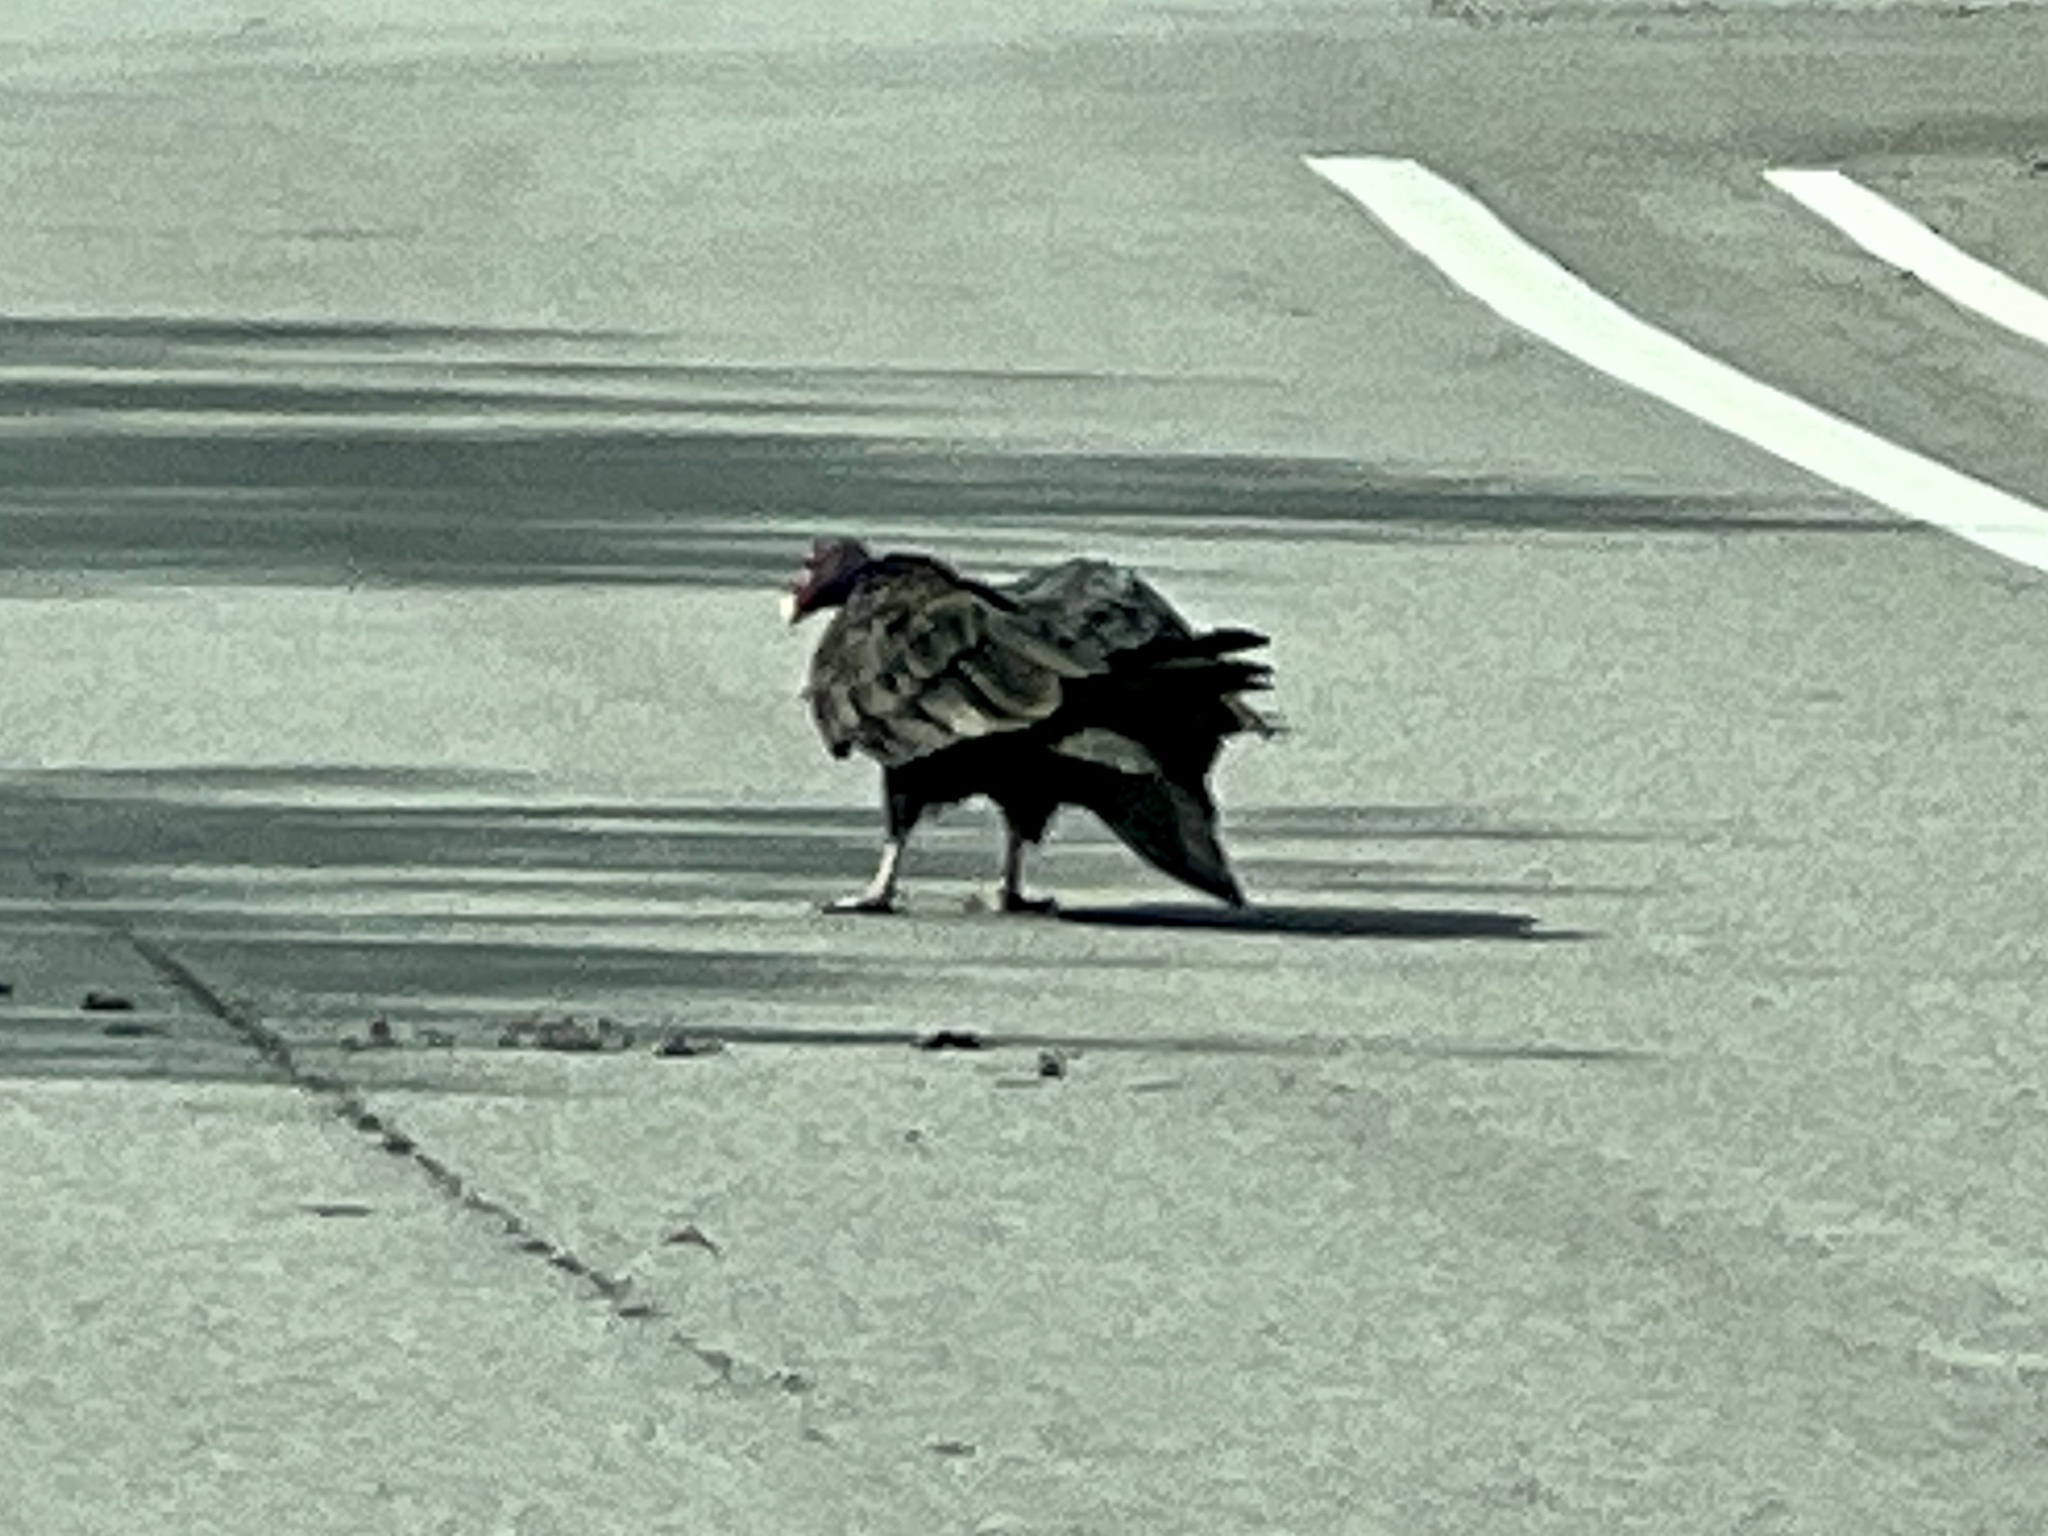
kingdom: Animalia
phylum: Chordata
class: Aves
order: Accipitriformes
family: Cathartidae
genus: Cathartes
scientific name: Cathartes aura
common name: Turkey vulture
